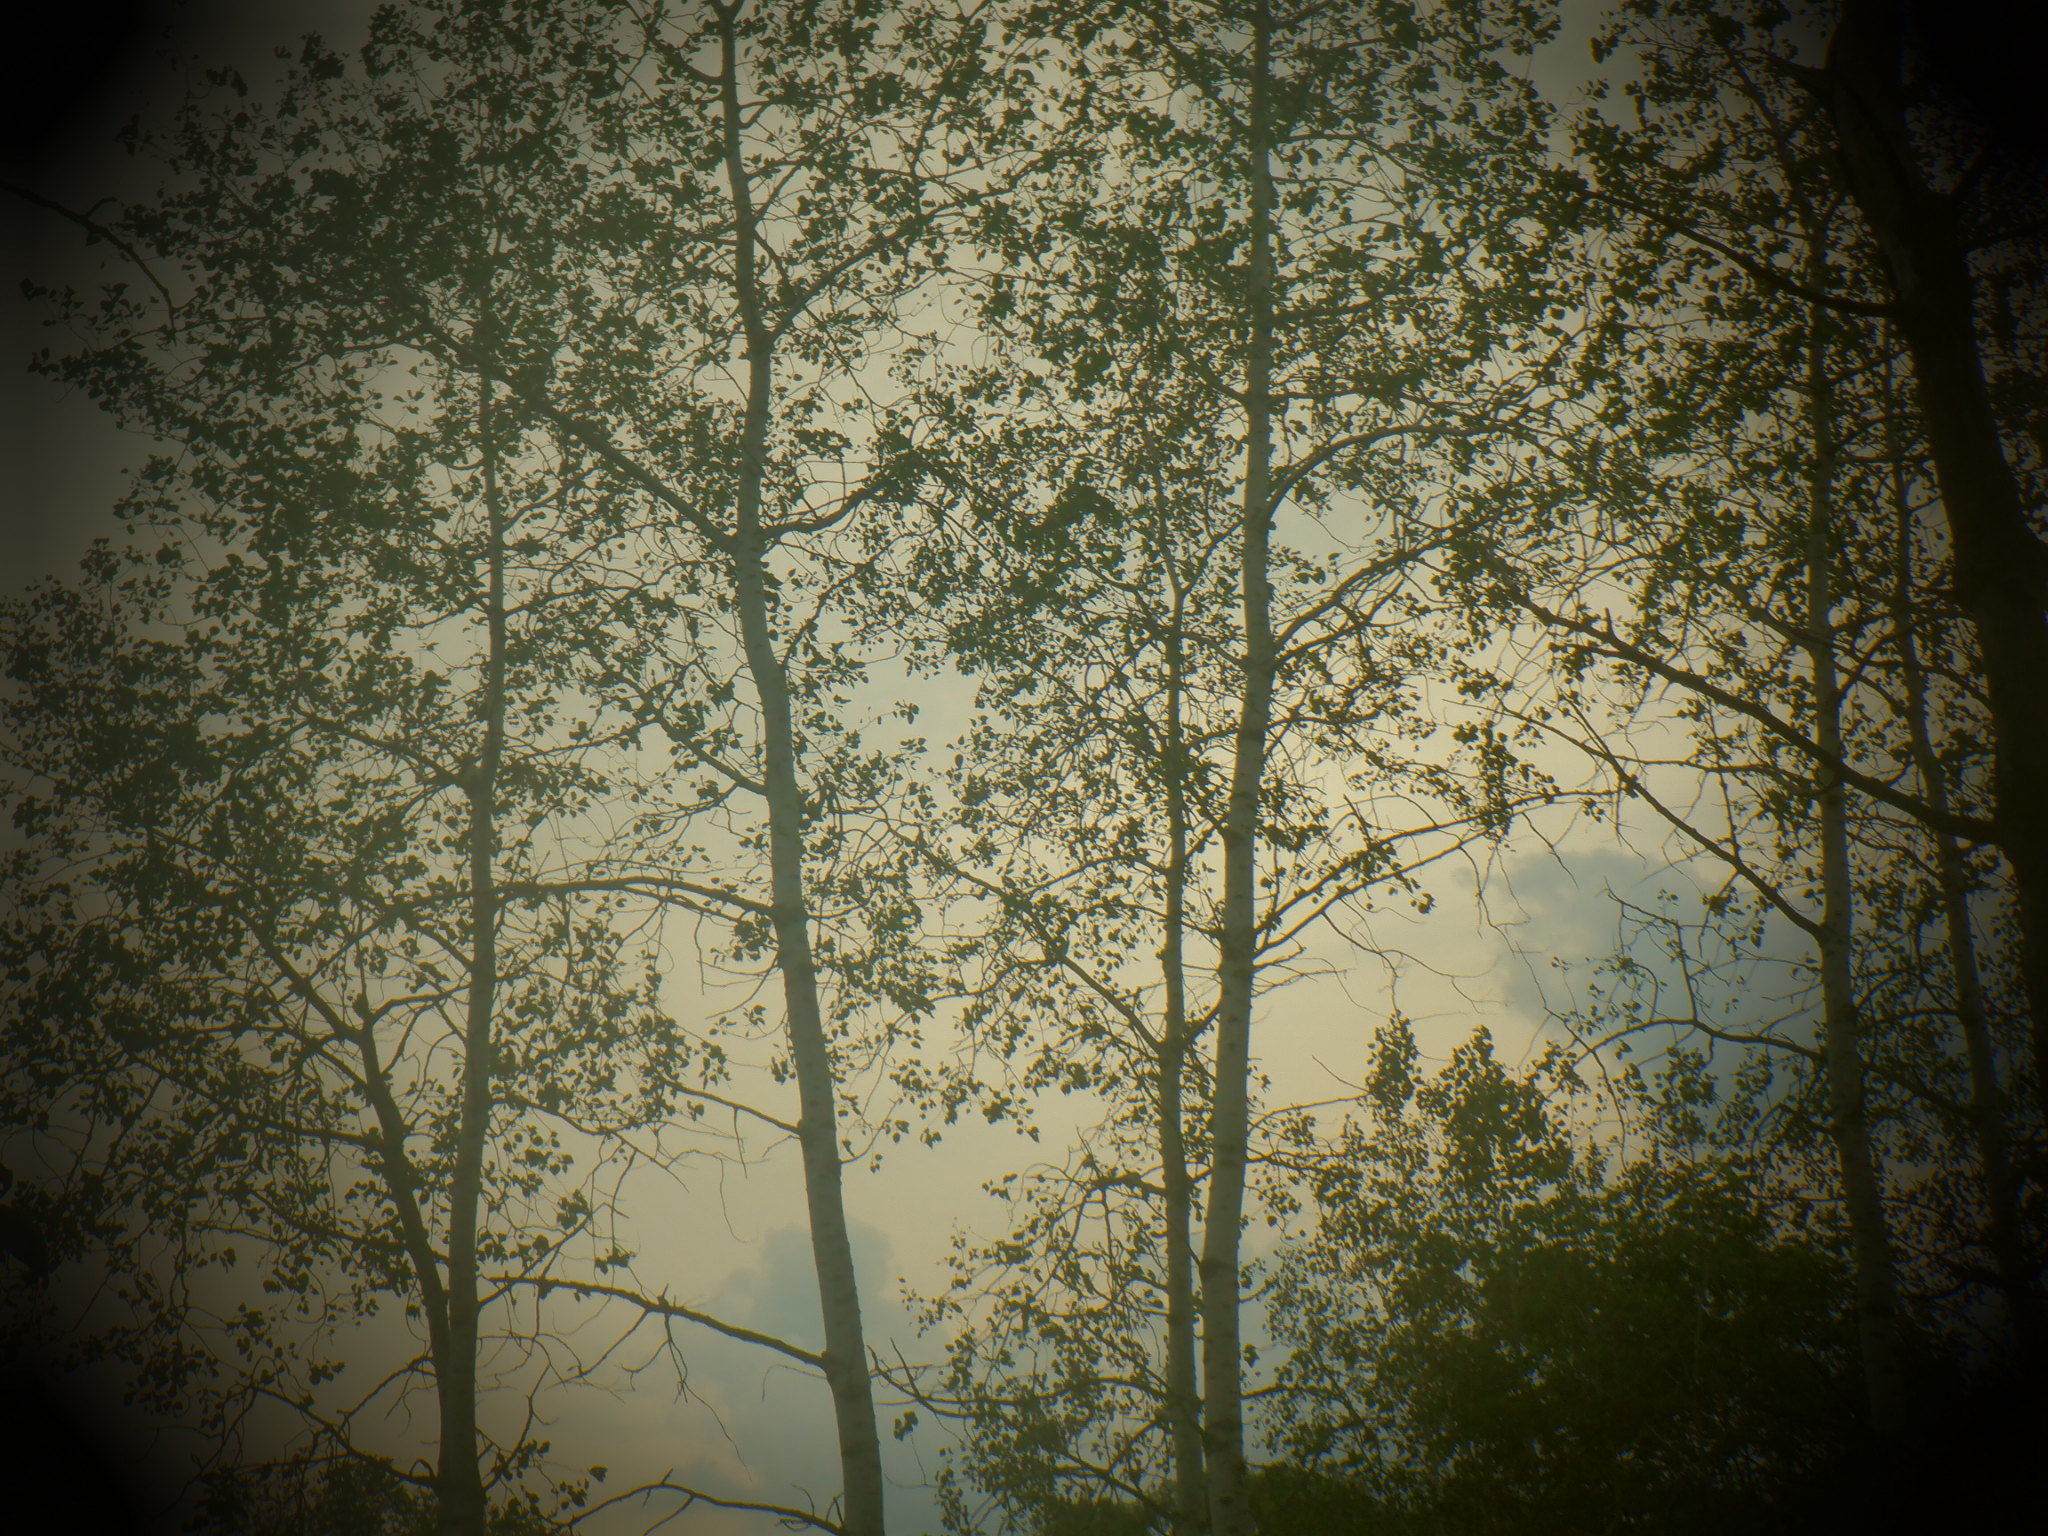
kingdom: Plantae
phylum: Tracheophyta
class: Magnoliopsida
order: Malpighiales
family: Salicaceae
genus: Populus
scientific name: Populus tremuloides
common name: Quaking aspen
